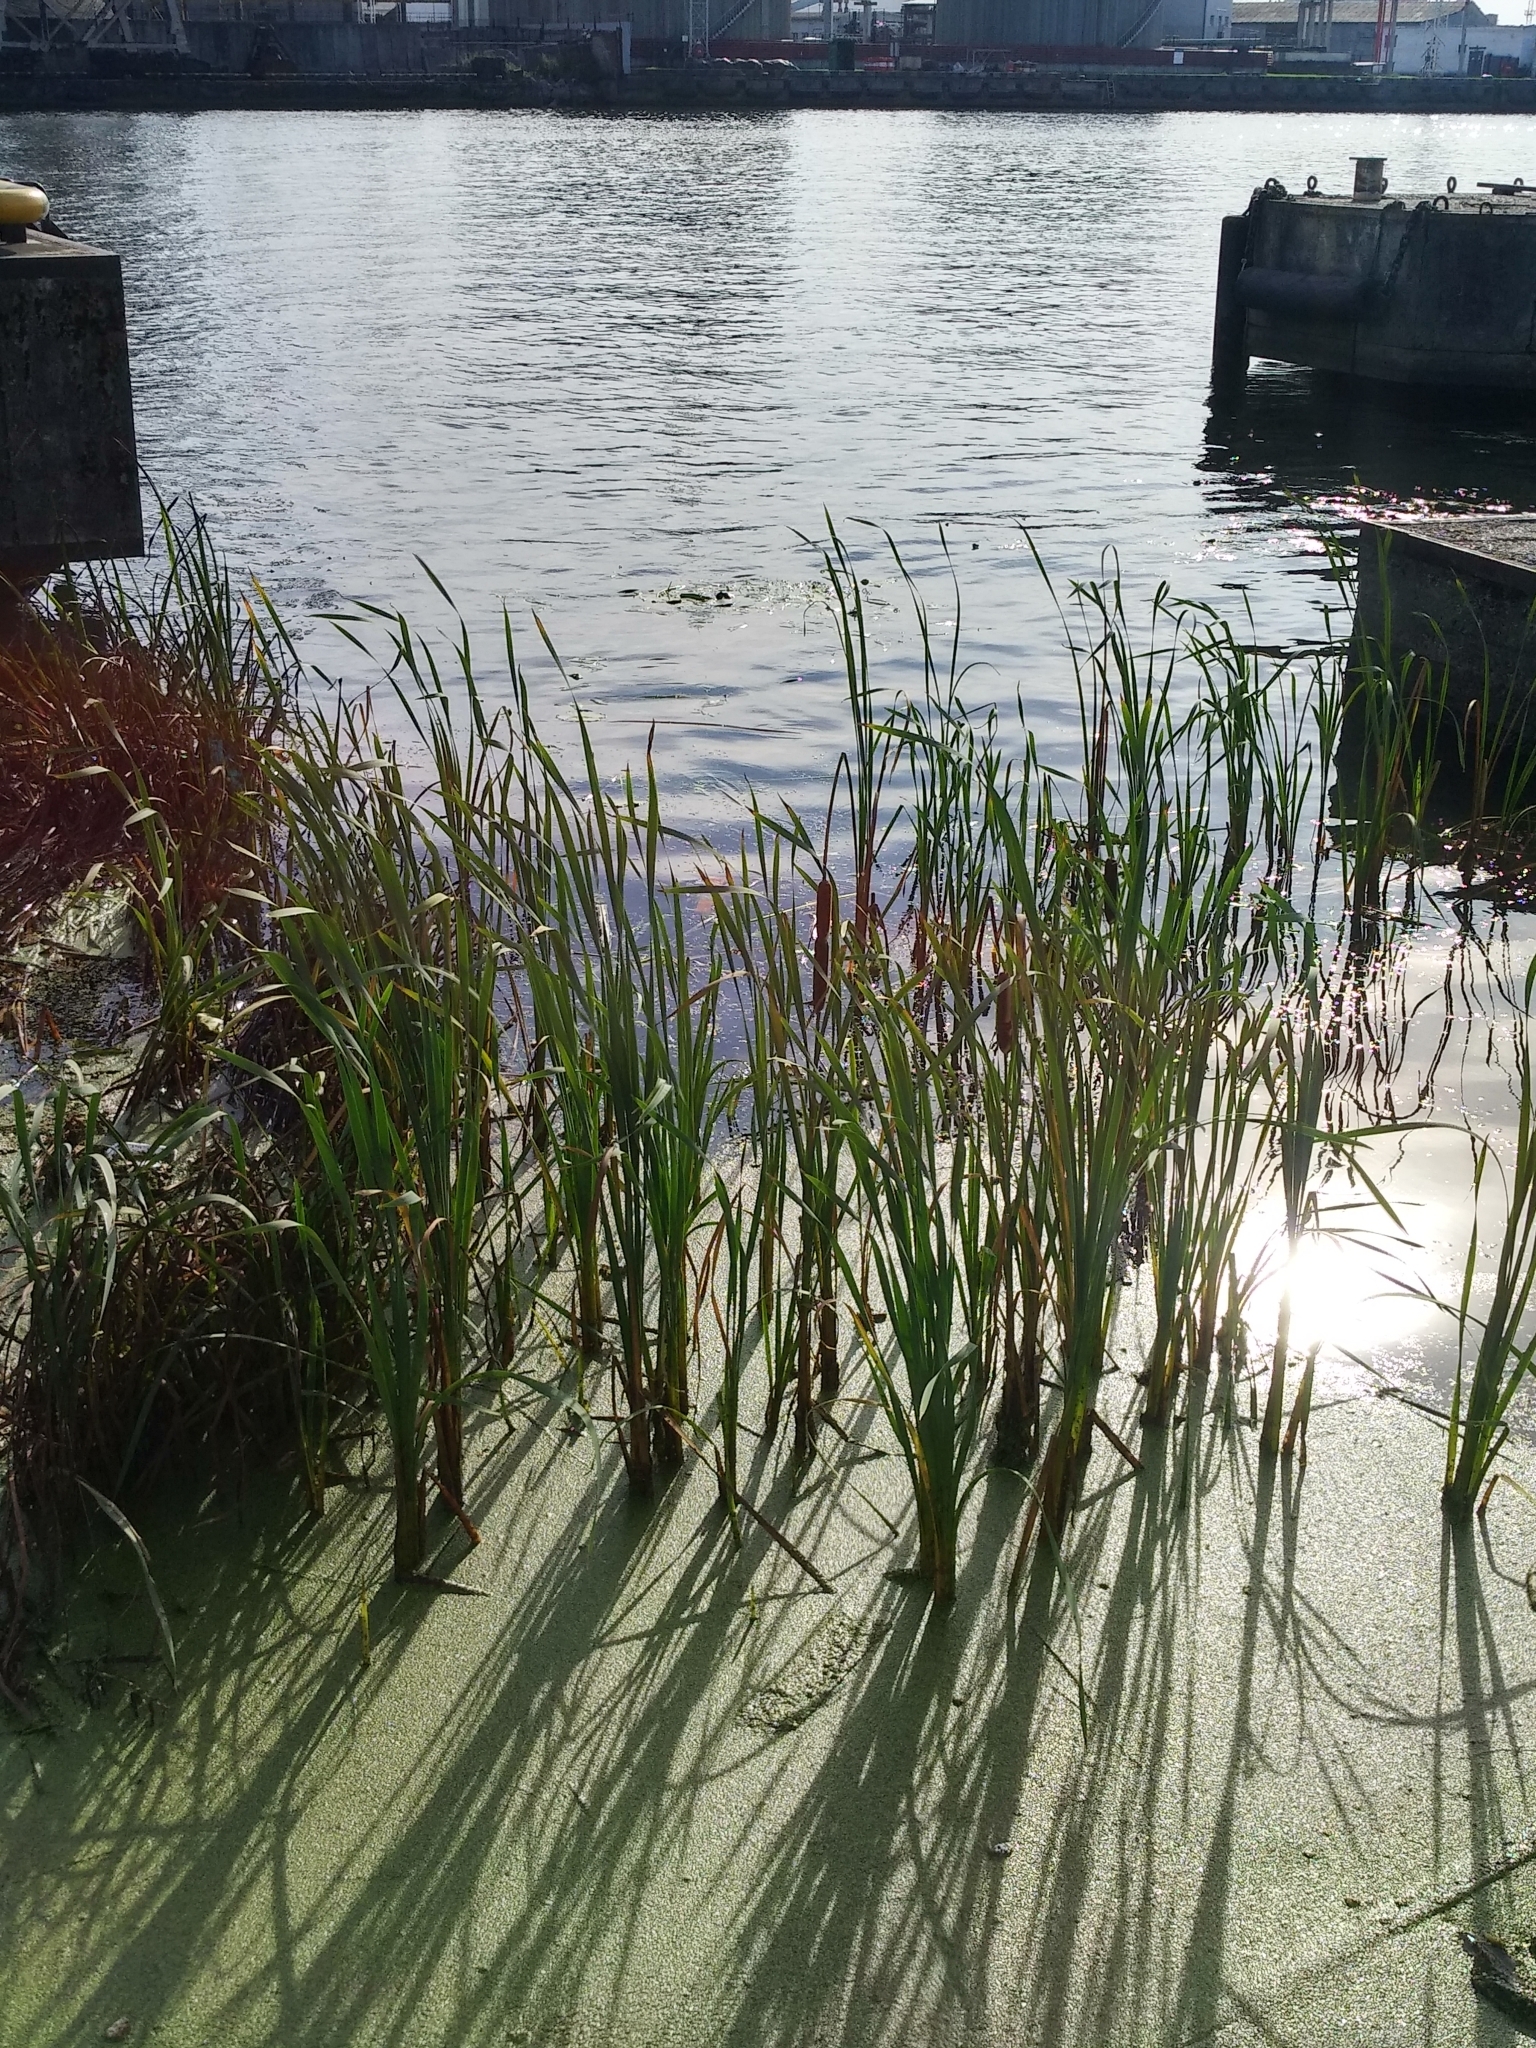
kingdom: Plantae
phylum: Tracheophyta
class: Liliopsida
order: Poales
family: Typhaceae
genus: Typha
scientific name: Typha latifolia
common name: Broadleaf cattail
